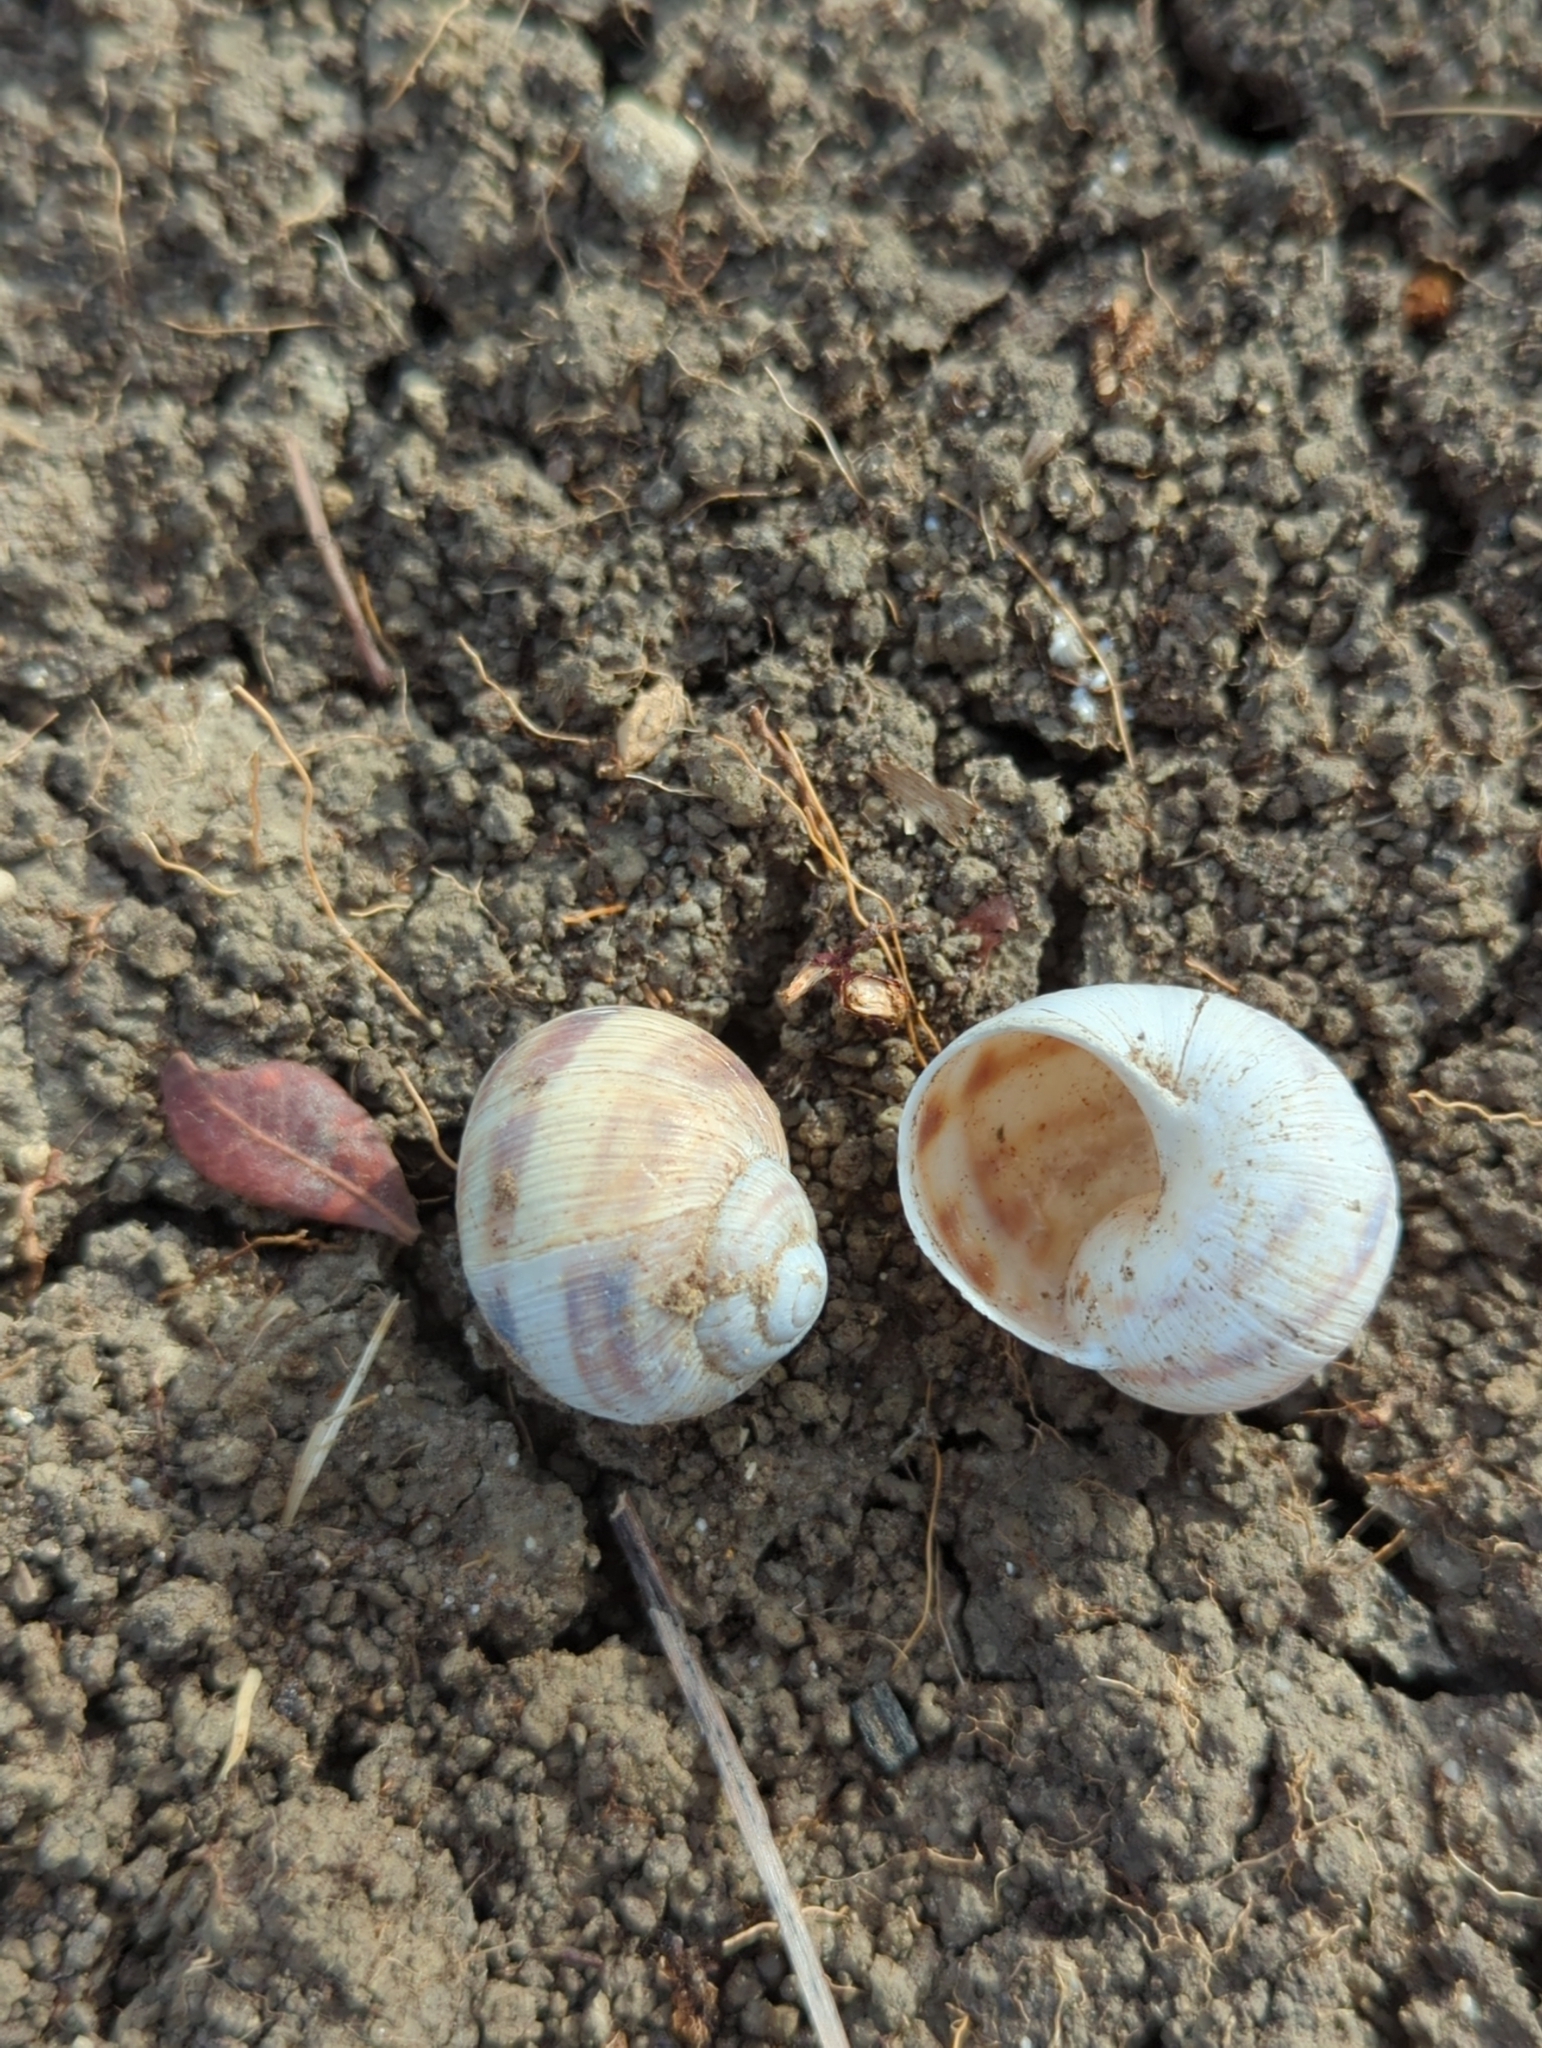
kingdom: Animalia
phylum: Mollusca
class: Gastropoda
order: Stylommatophora
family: Helicidae
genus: Helix
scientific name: Helix figulina
